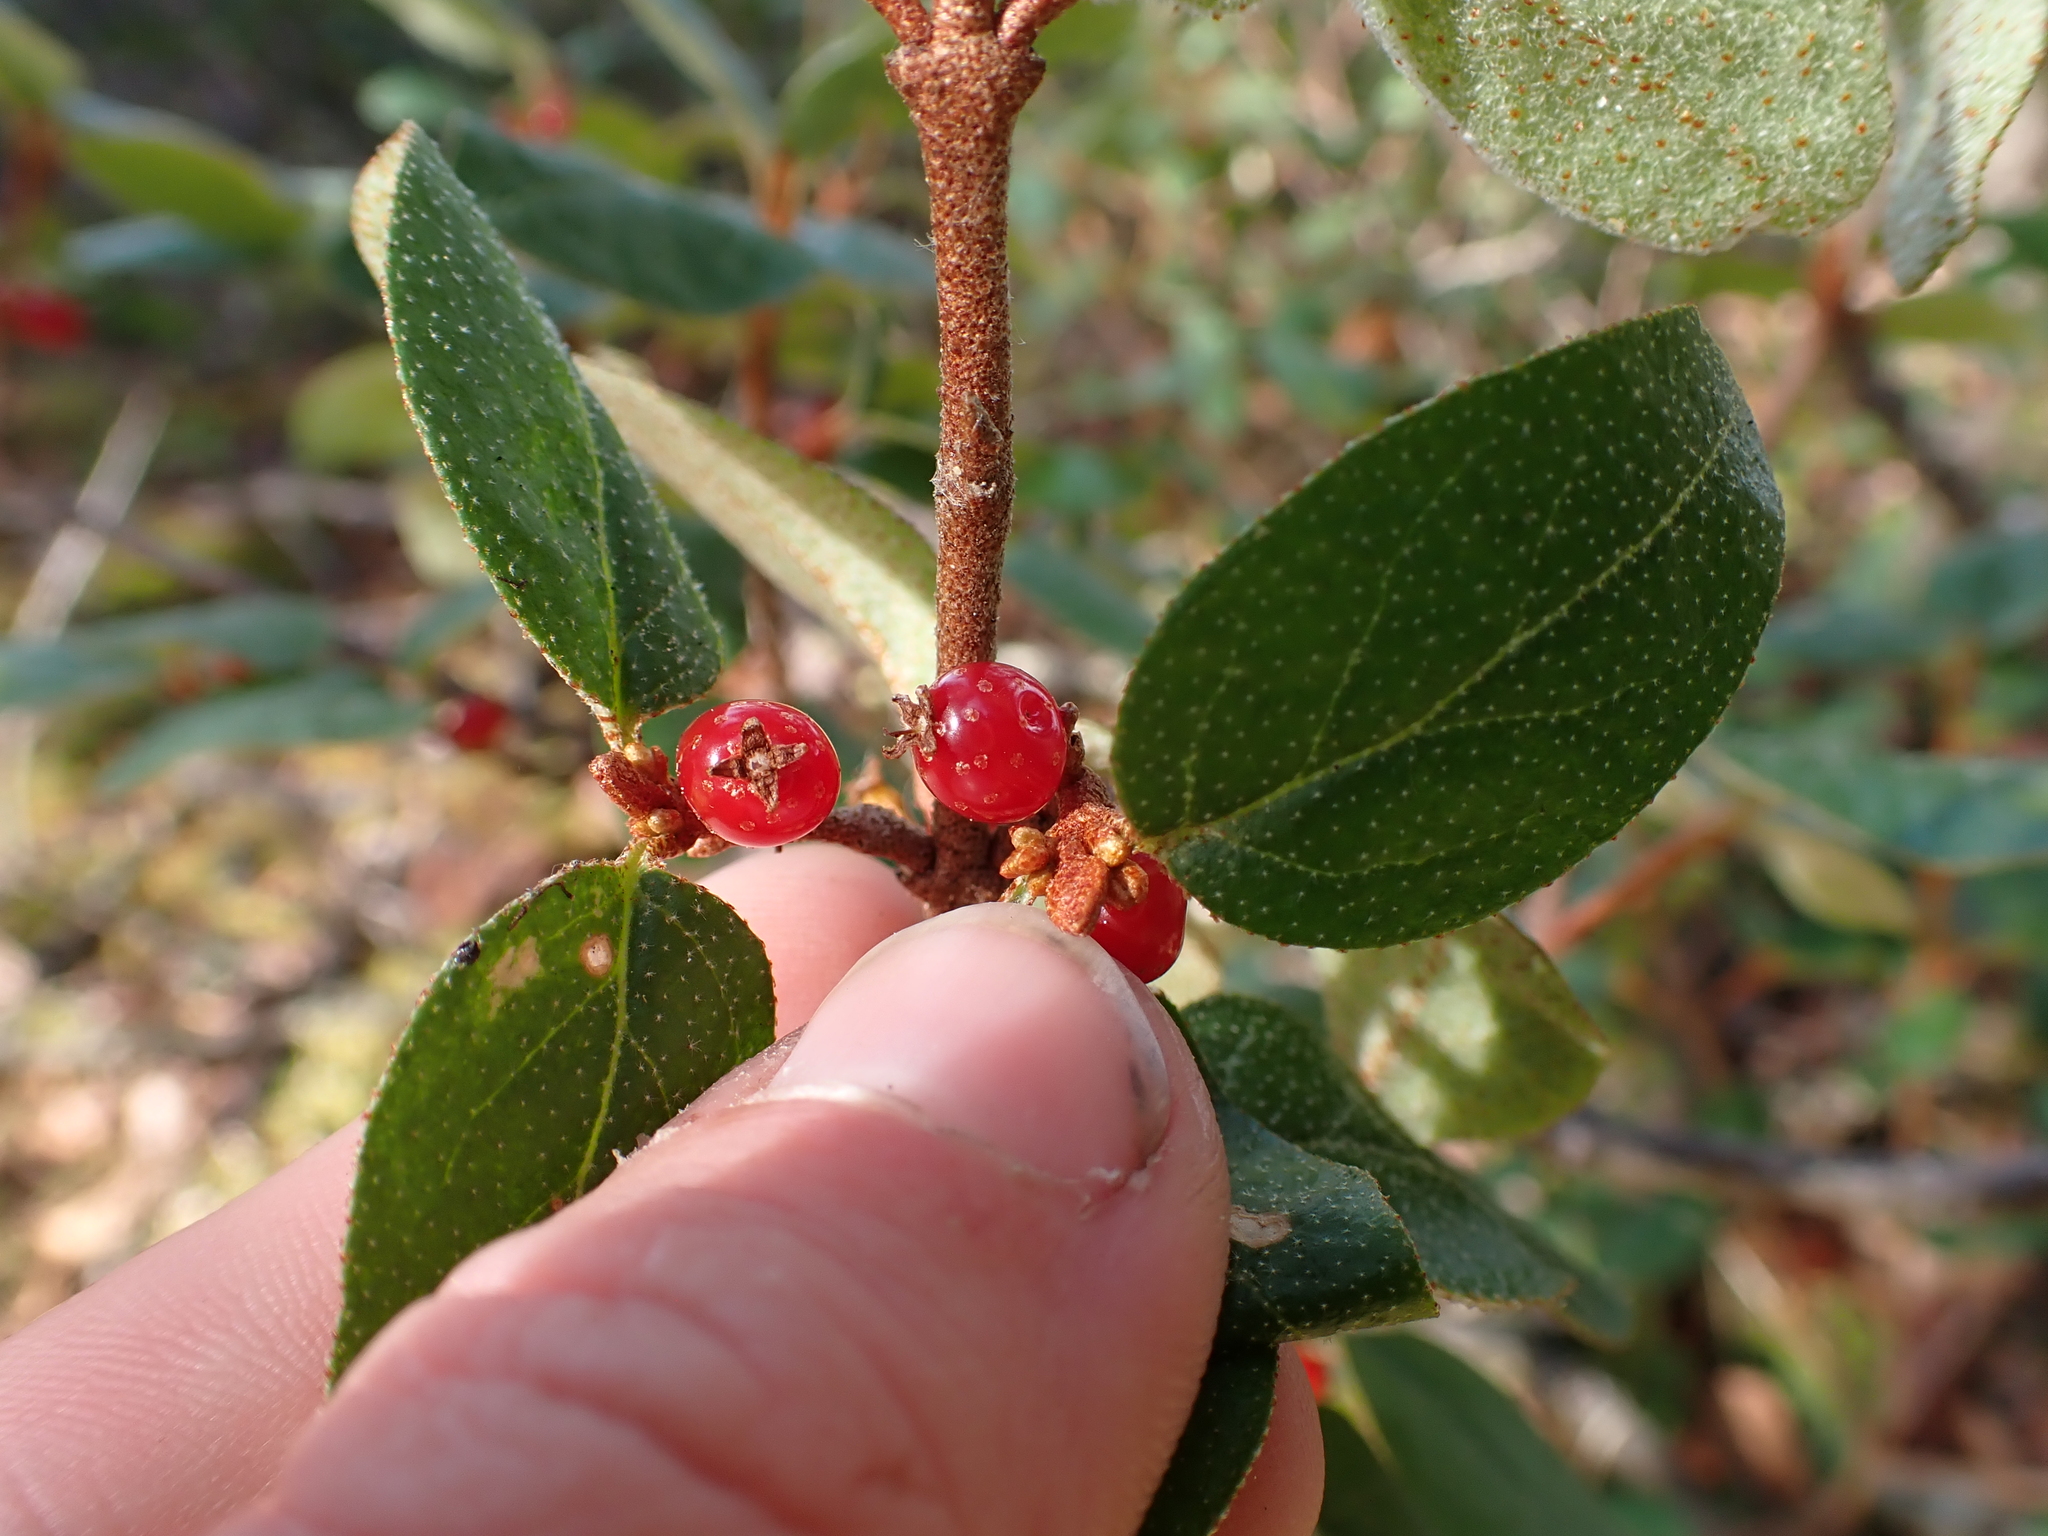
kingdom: Plantae
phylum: Tracheophyta
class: Magnoliopsida
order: Rosales
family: Elaeagnaceae
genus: Shepherdia
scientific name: Shepherdia canadensis
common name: Soapberry
